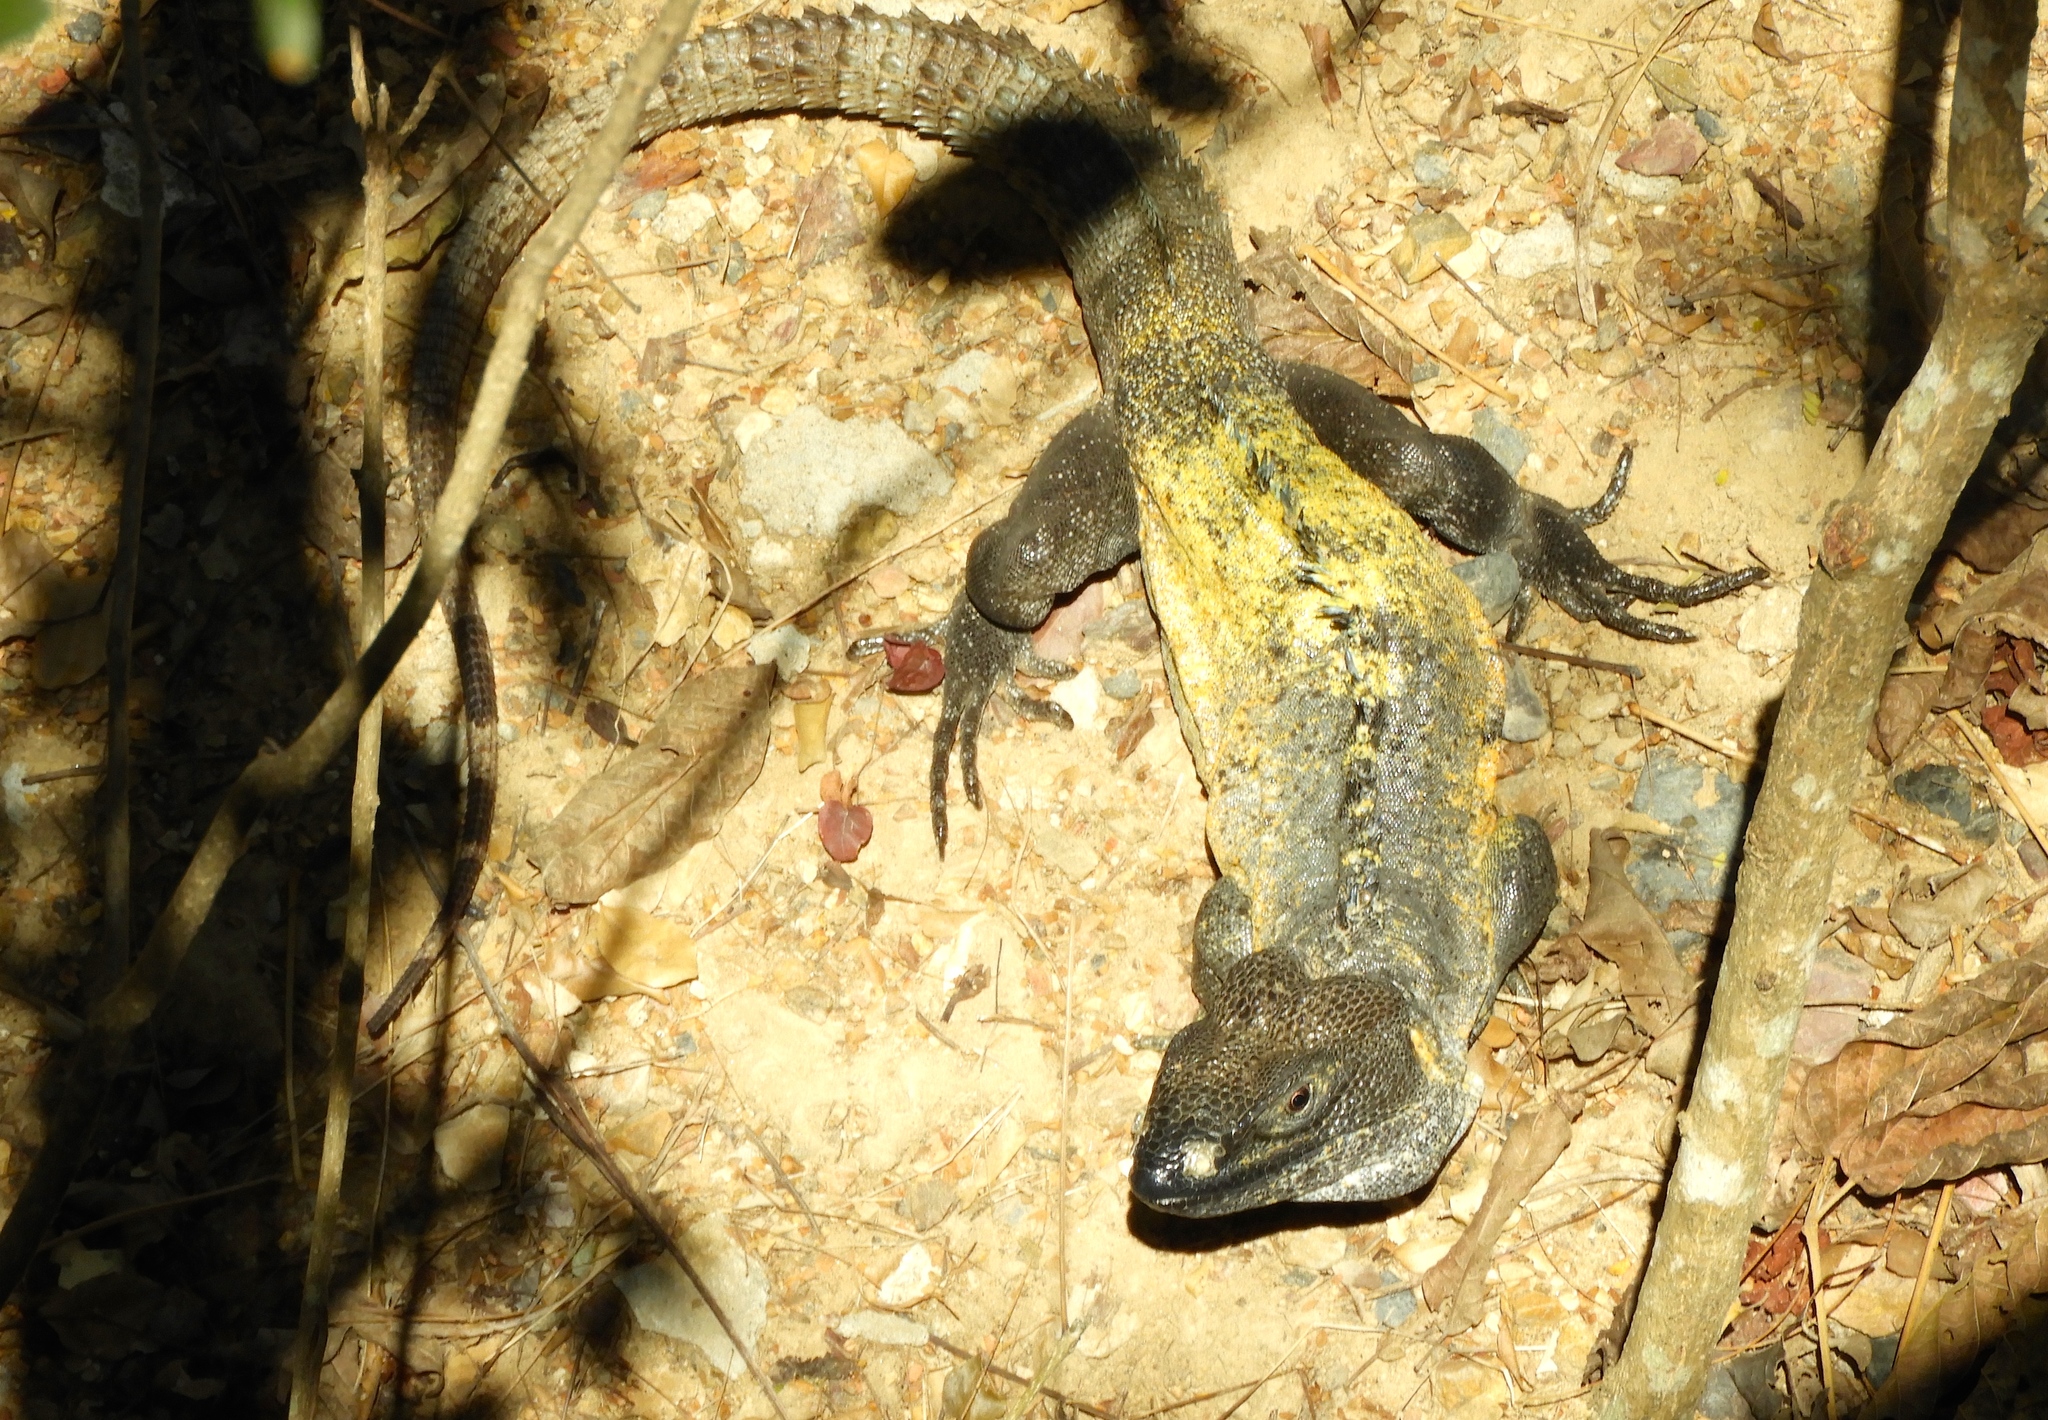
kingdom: Animalia
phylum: Chordata
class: Squamata
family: Iguanidae
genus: Ctenosaura
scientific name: Ctenosaura pectinata
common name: Guerreran spiny-tailed iguana
